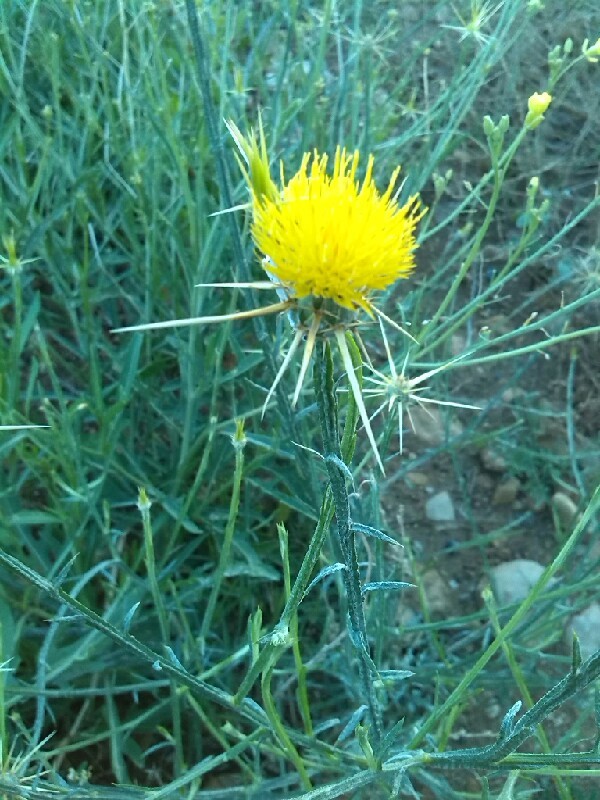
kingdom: Plantae
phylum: Tracheophyta
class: Magnoliopsida
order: Asterales
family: Asteraceae
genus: Centaurea
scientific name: Centaurea solstitialis
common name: Yellow star-thistle
